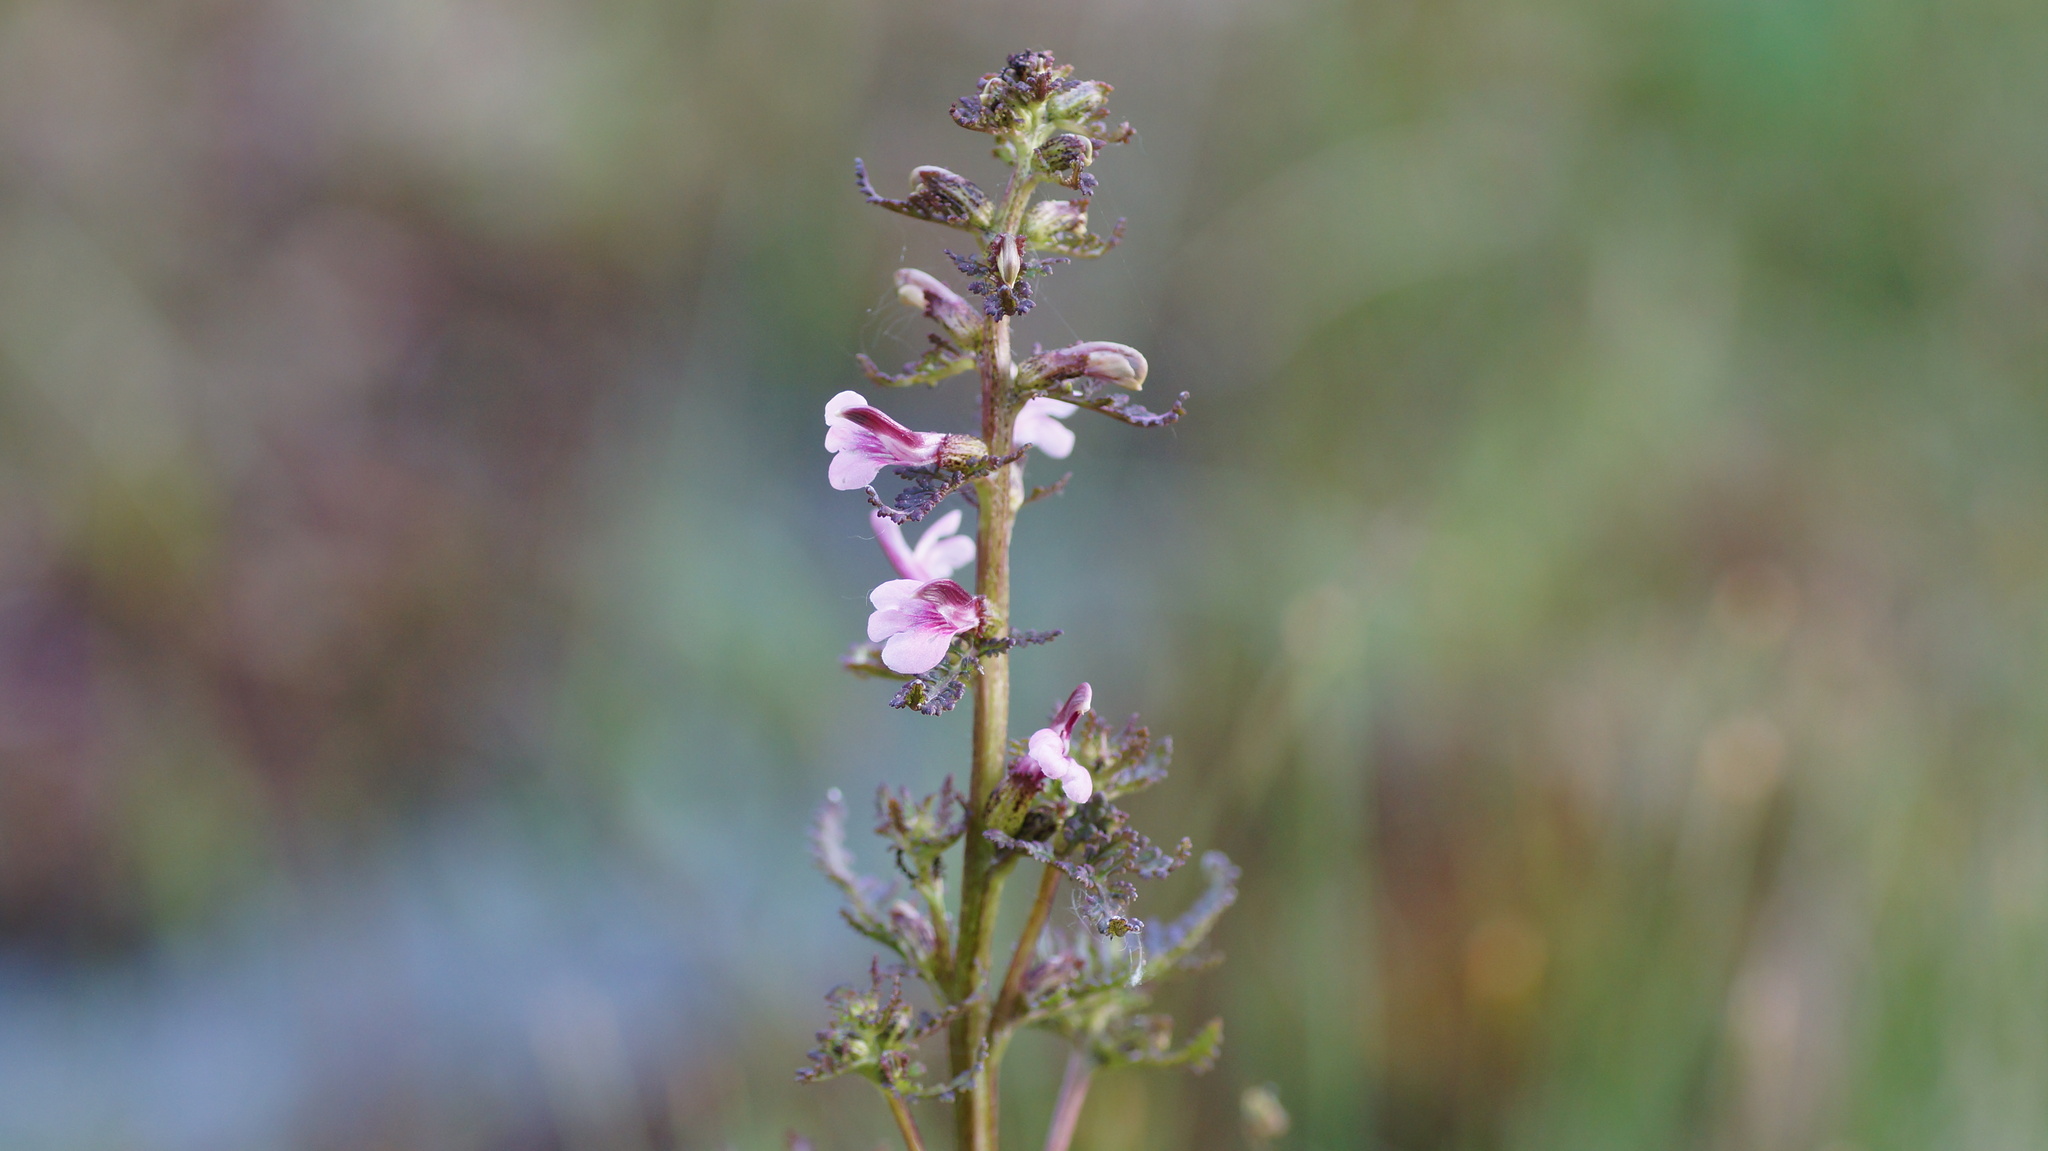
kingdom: Plantae
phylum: Tracheophyta
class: Magnoliopsida
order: Lamiales
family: Orobanchaceae
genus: Pedicularis
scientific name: Pedicularis palustris
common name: Marsh lousewort
